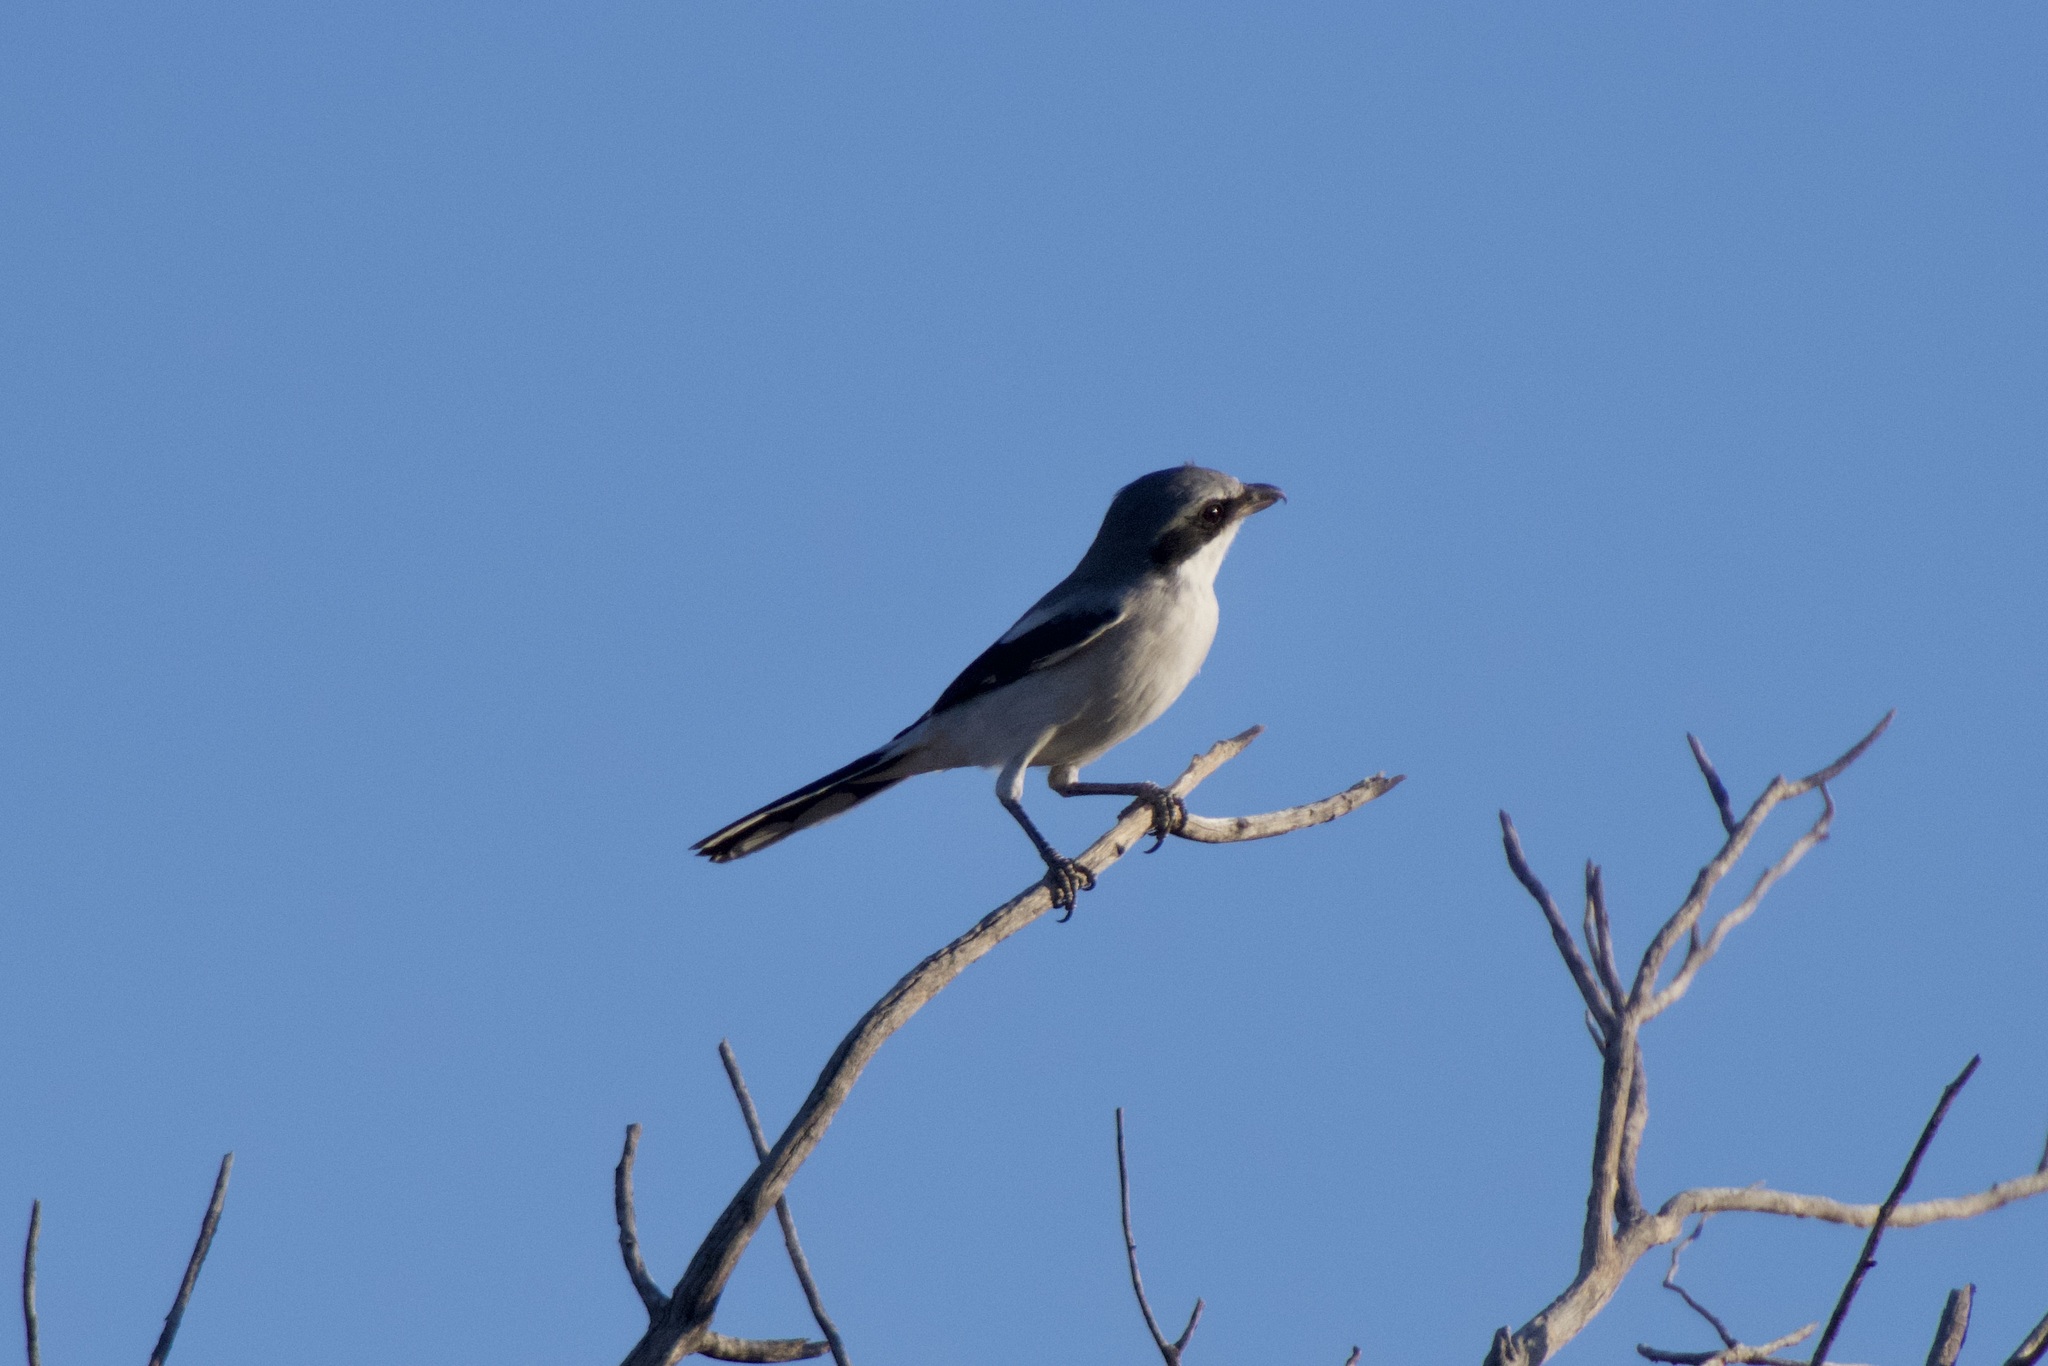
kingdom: Animalia
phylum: Chordata
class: Aves
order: Passeriformes
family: Laniidae
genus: Lanius
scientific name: Lanius ludovicianus
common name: Loggerhead shrike
